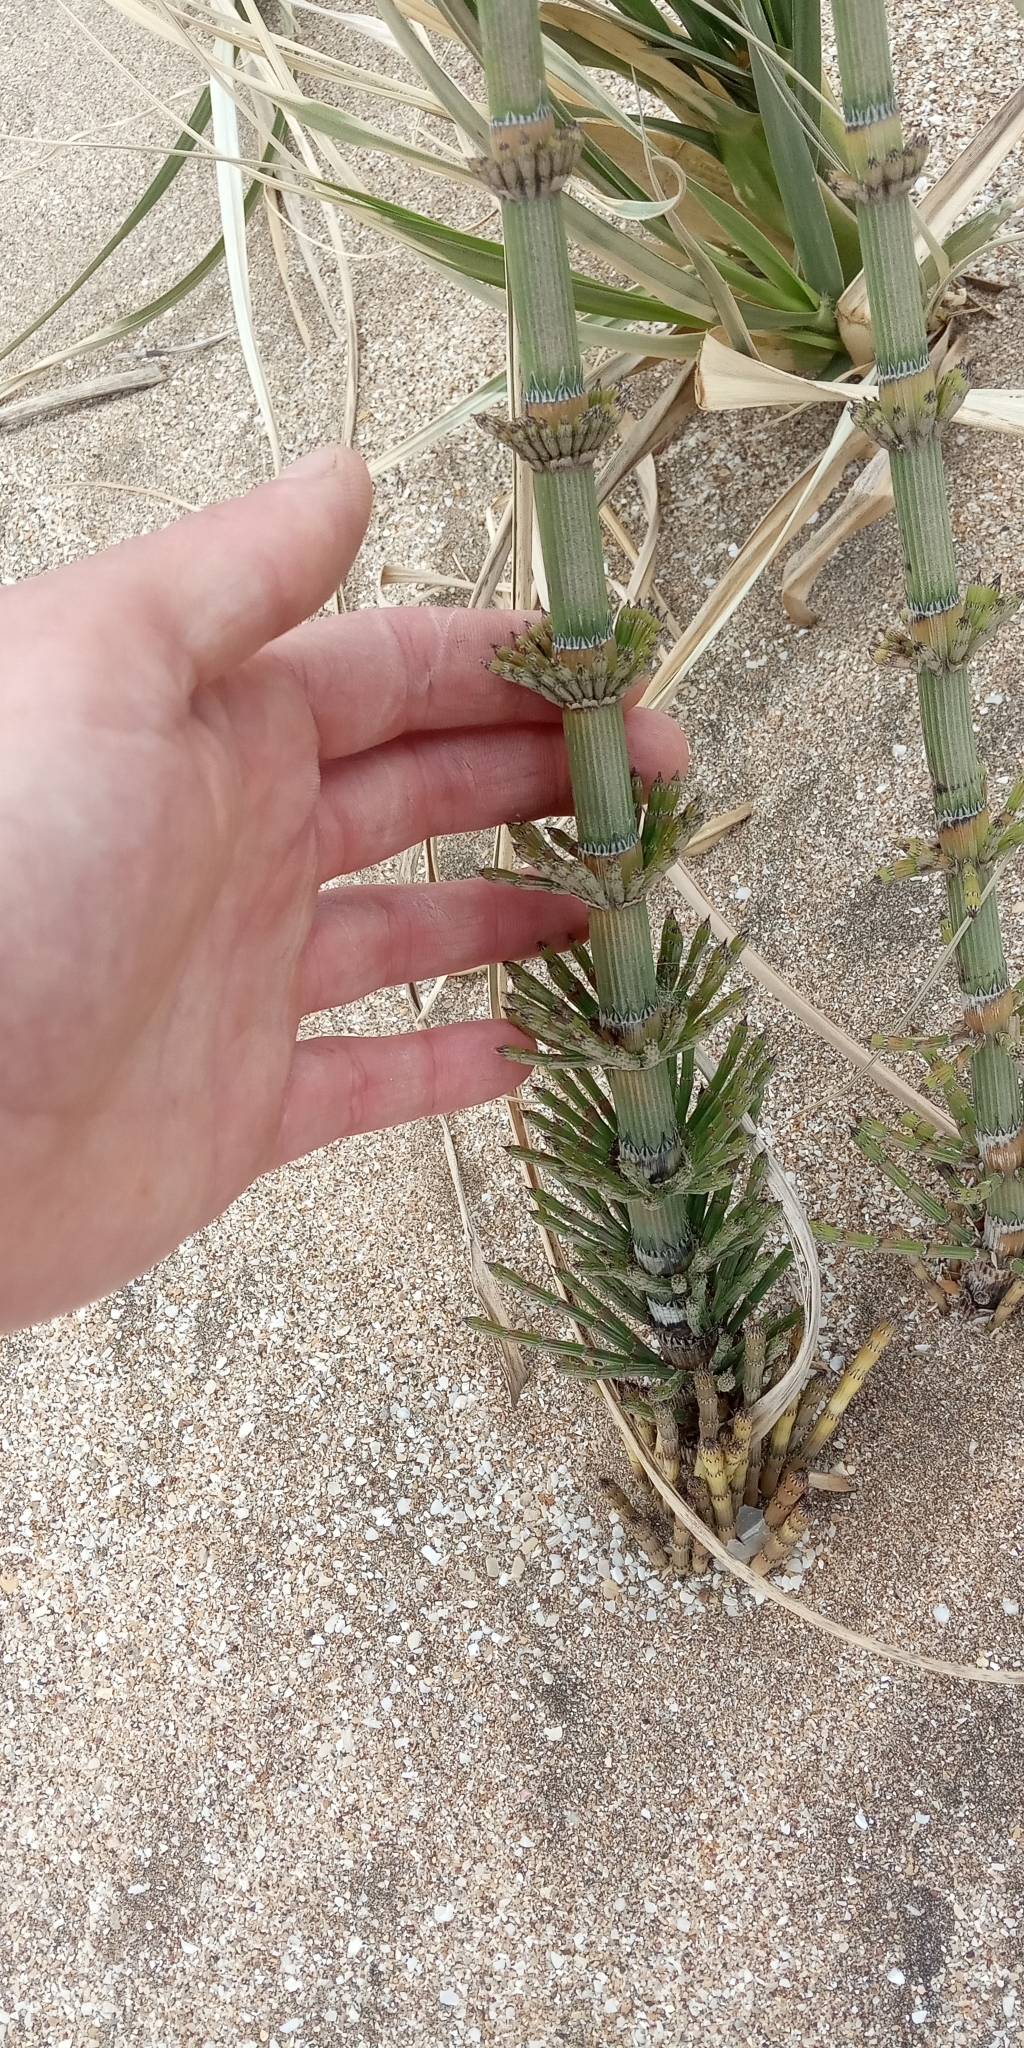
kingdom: Plantae
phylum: Tracheophyta
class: Polypodiopsida
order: Equisetales
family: Equisetaceae
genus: Equisetum
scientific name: Equisetum giganteum
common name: Giant horsetail
